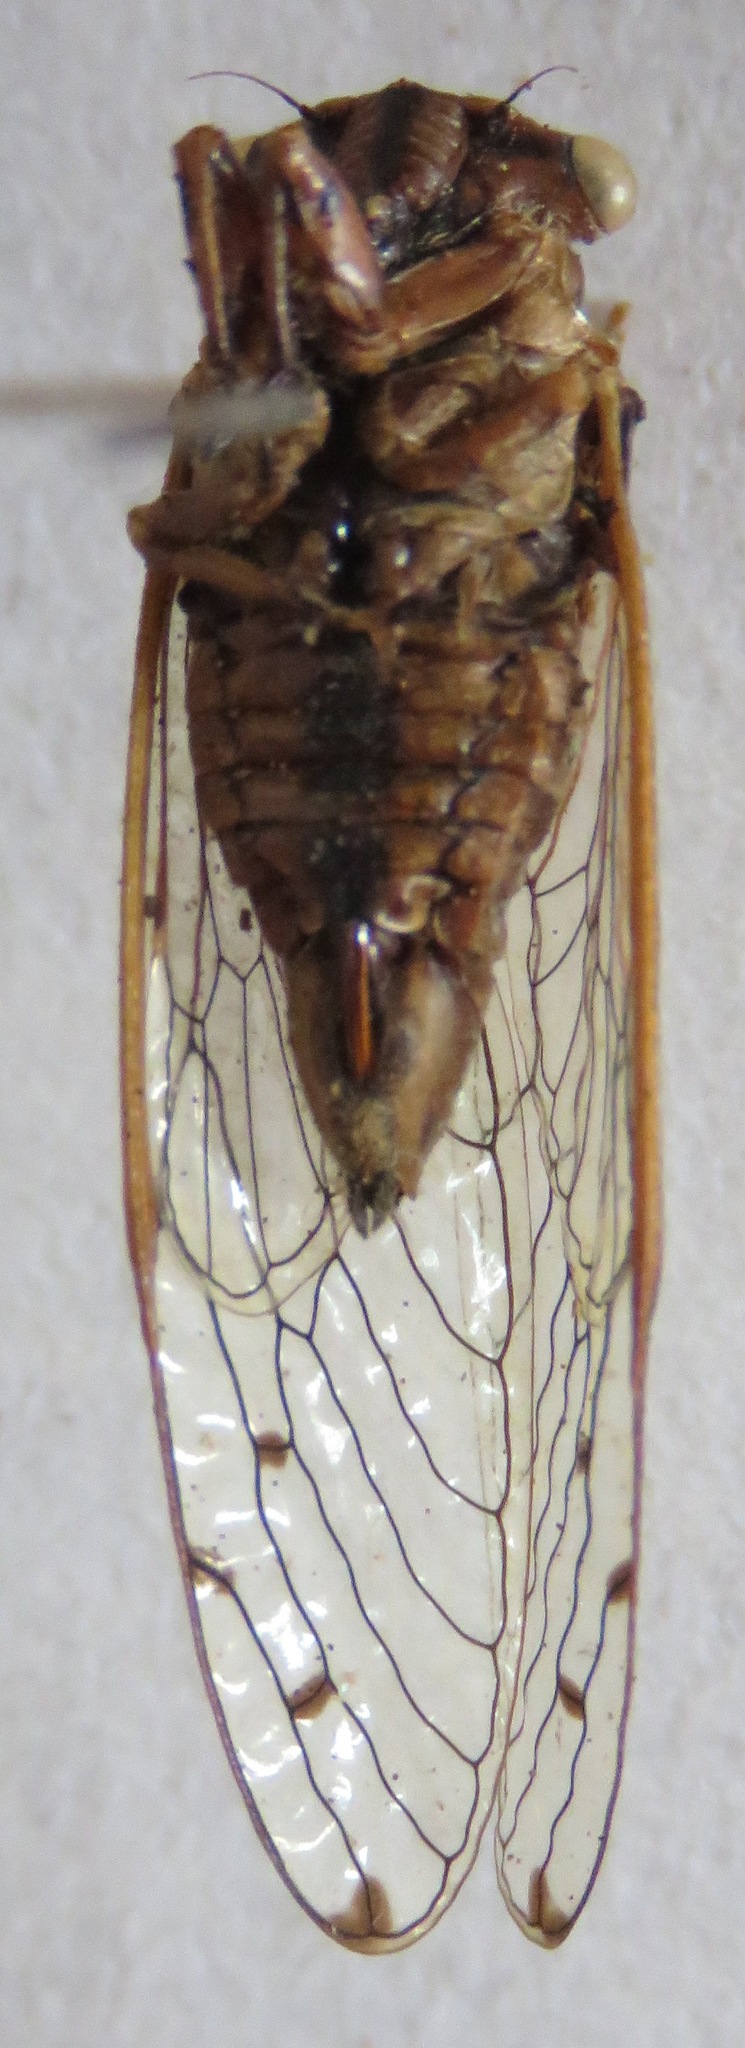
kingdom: Animalia
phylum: Arthropoda
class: Insecta
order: Hemiptera
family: Cicadidae
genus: Pacarina
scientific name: Pacarina schumanni
